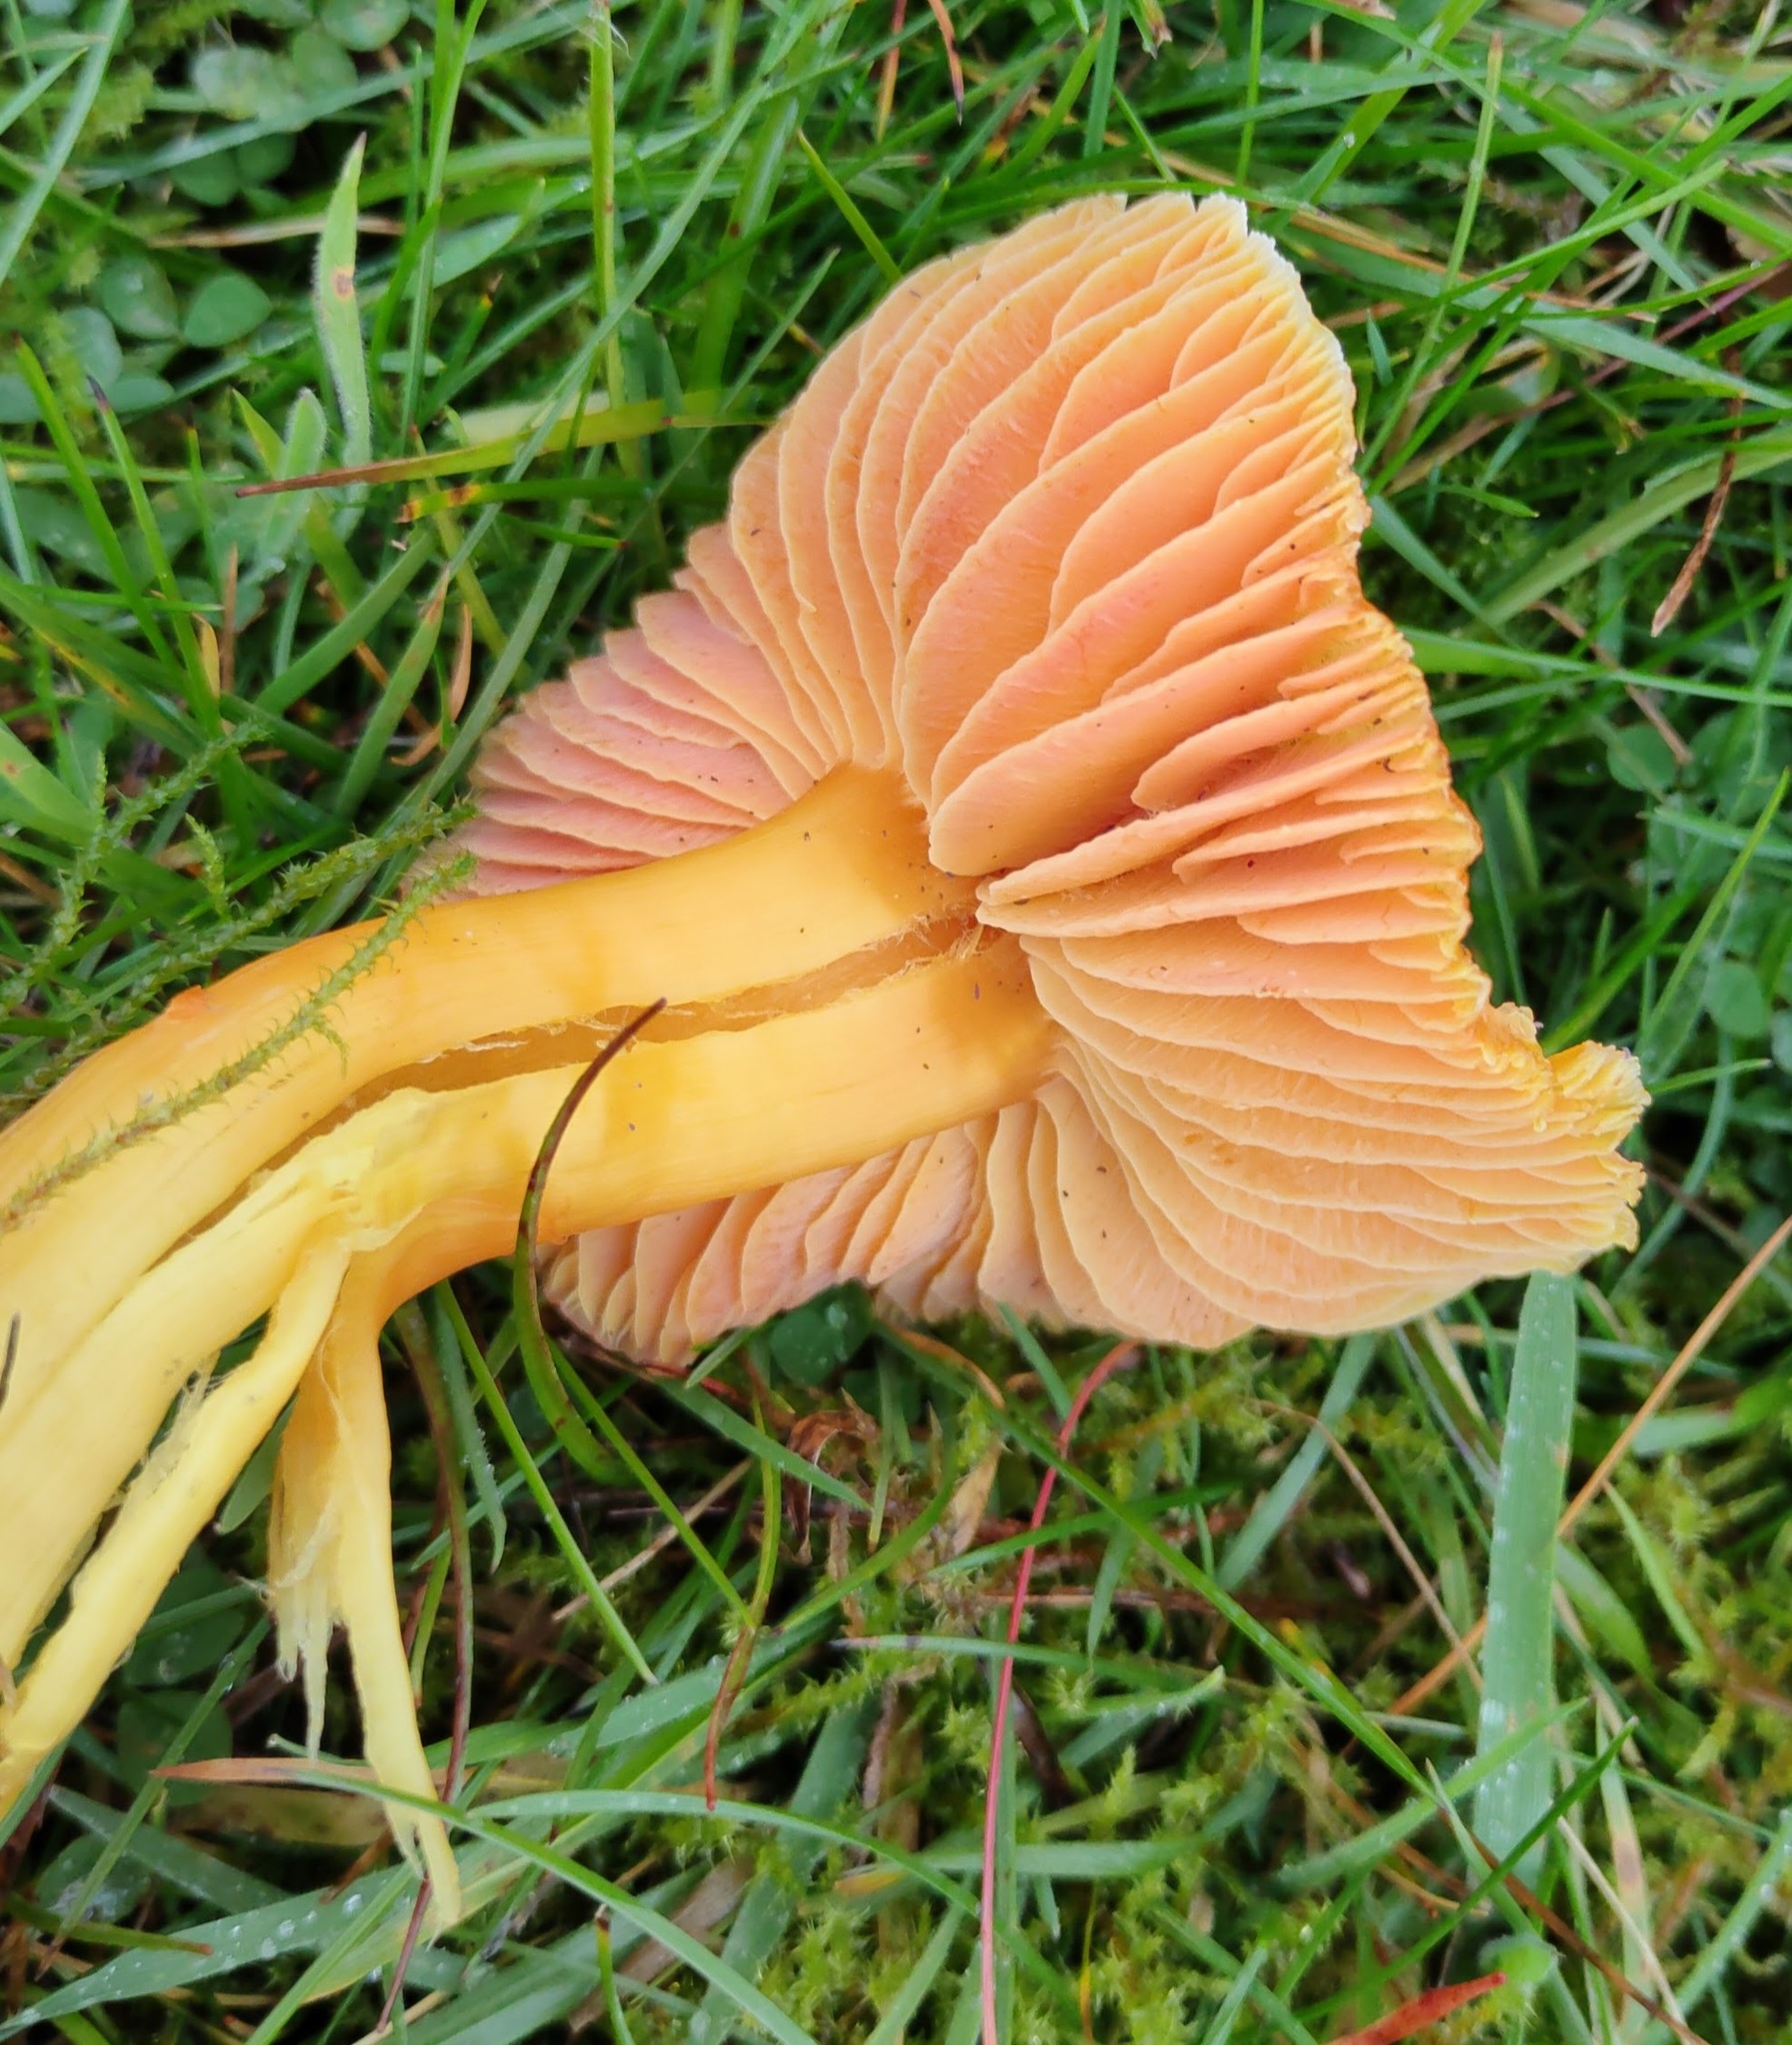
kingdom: Fungi
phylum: Basidiomycota
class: Agaricomycetes
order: Agaricales
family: Hygrophoraceae
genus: Hygrocybe
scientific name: Hygrocybe quieta
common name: Oily waxcap
